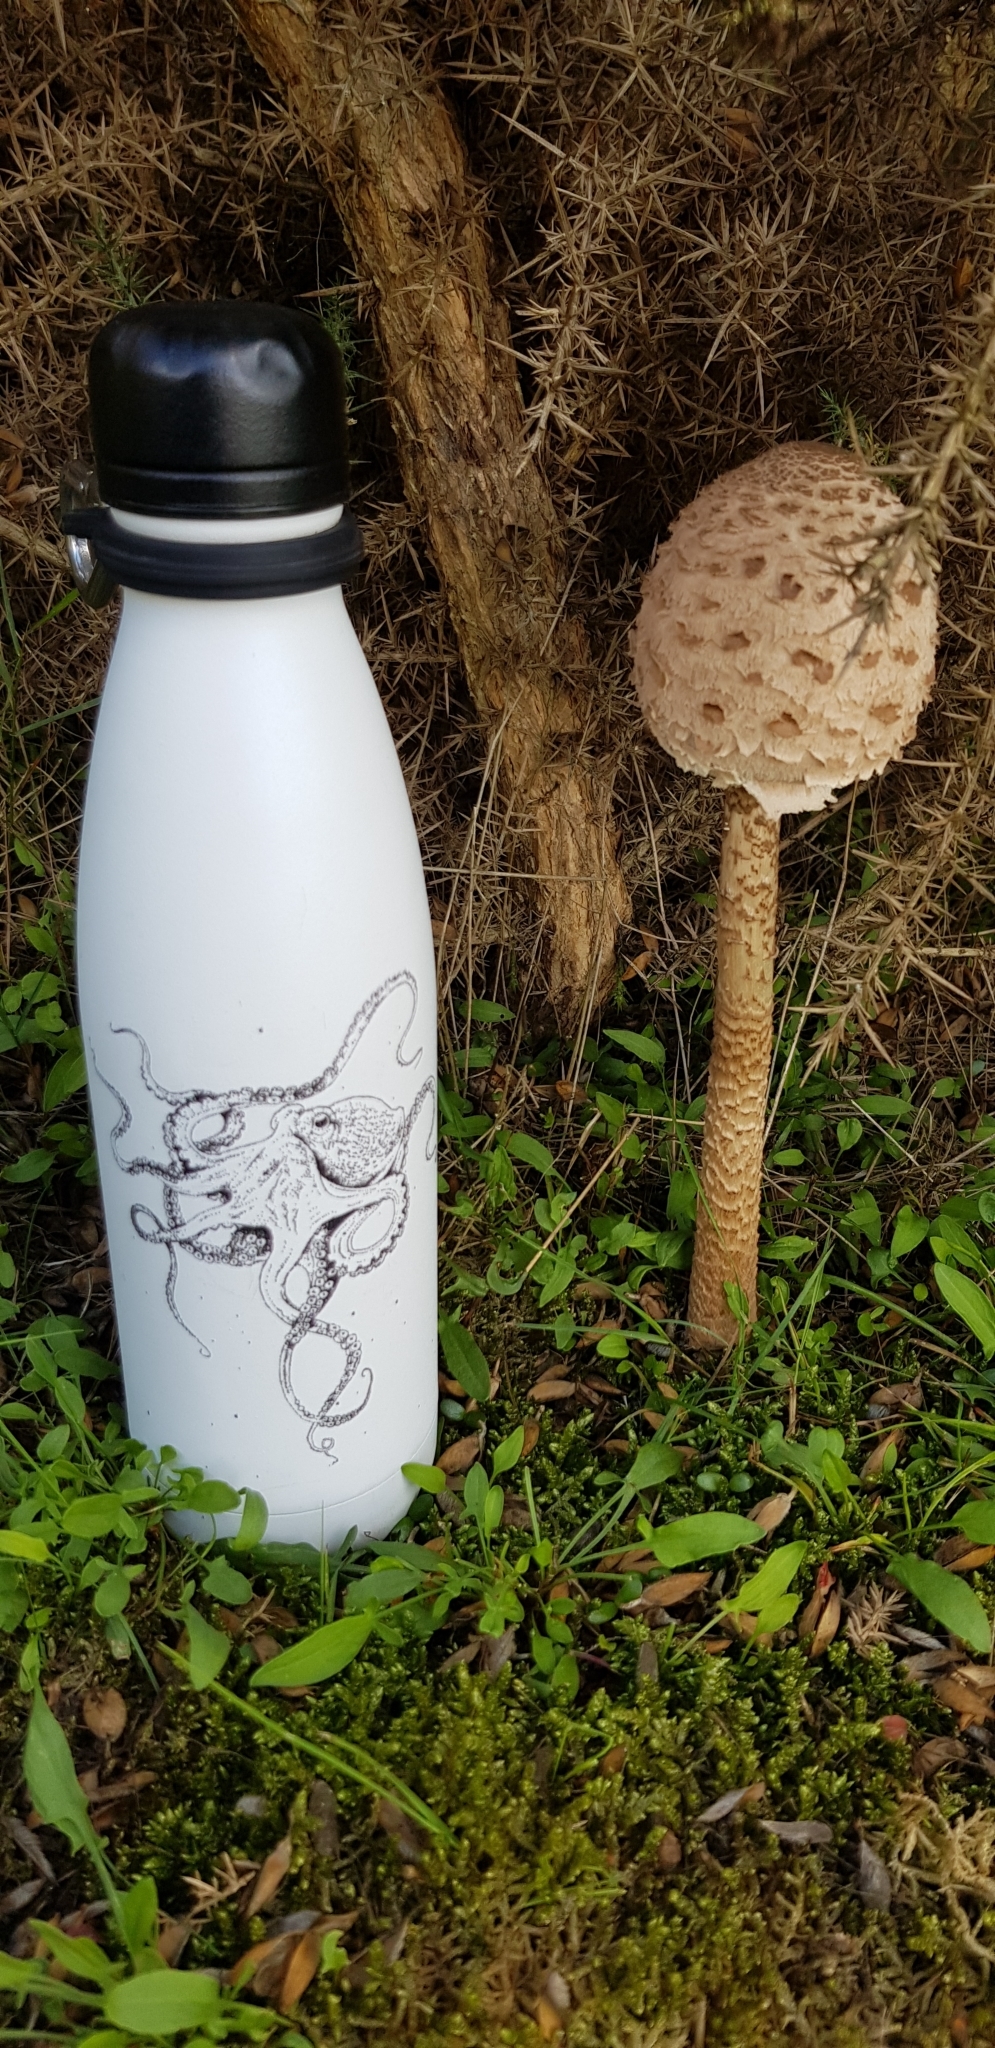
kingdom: Fungi
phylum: Basidiomycota
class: Agaricomycetes
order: Agaricales
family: Agaricaceae
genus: Macrolepiota
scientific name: Macrolepiota procera
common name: Parasol
